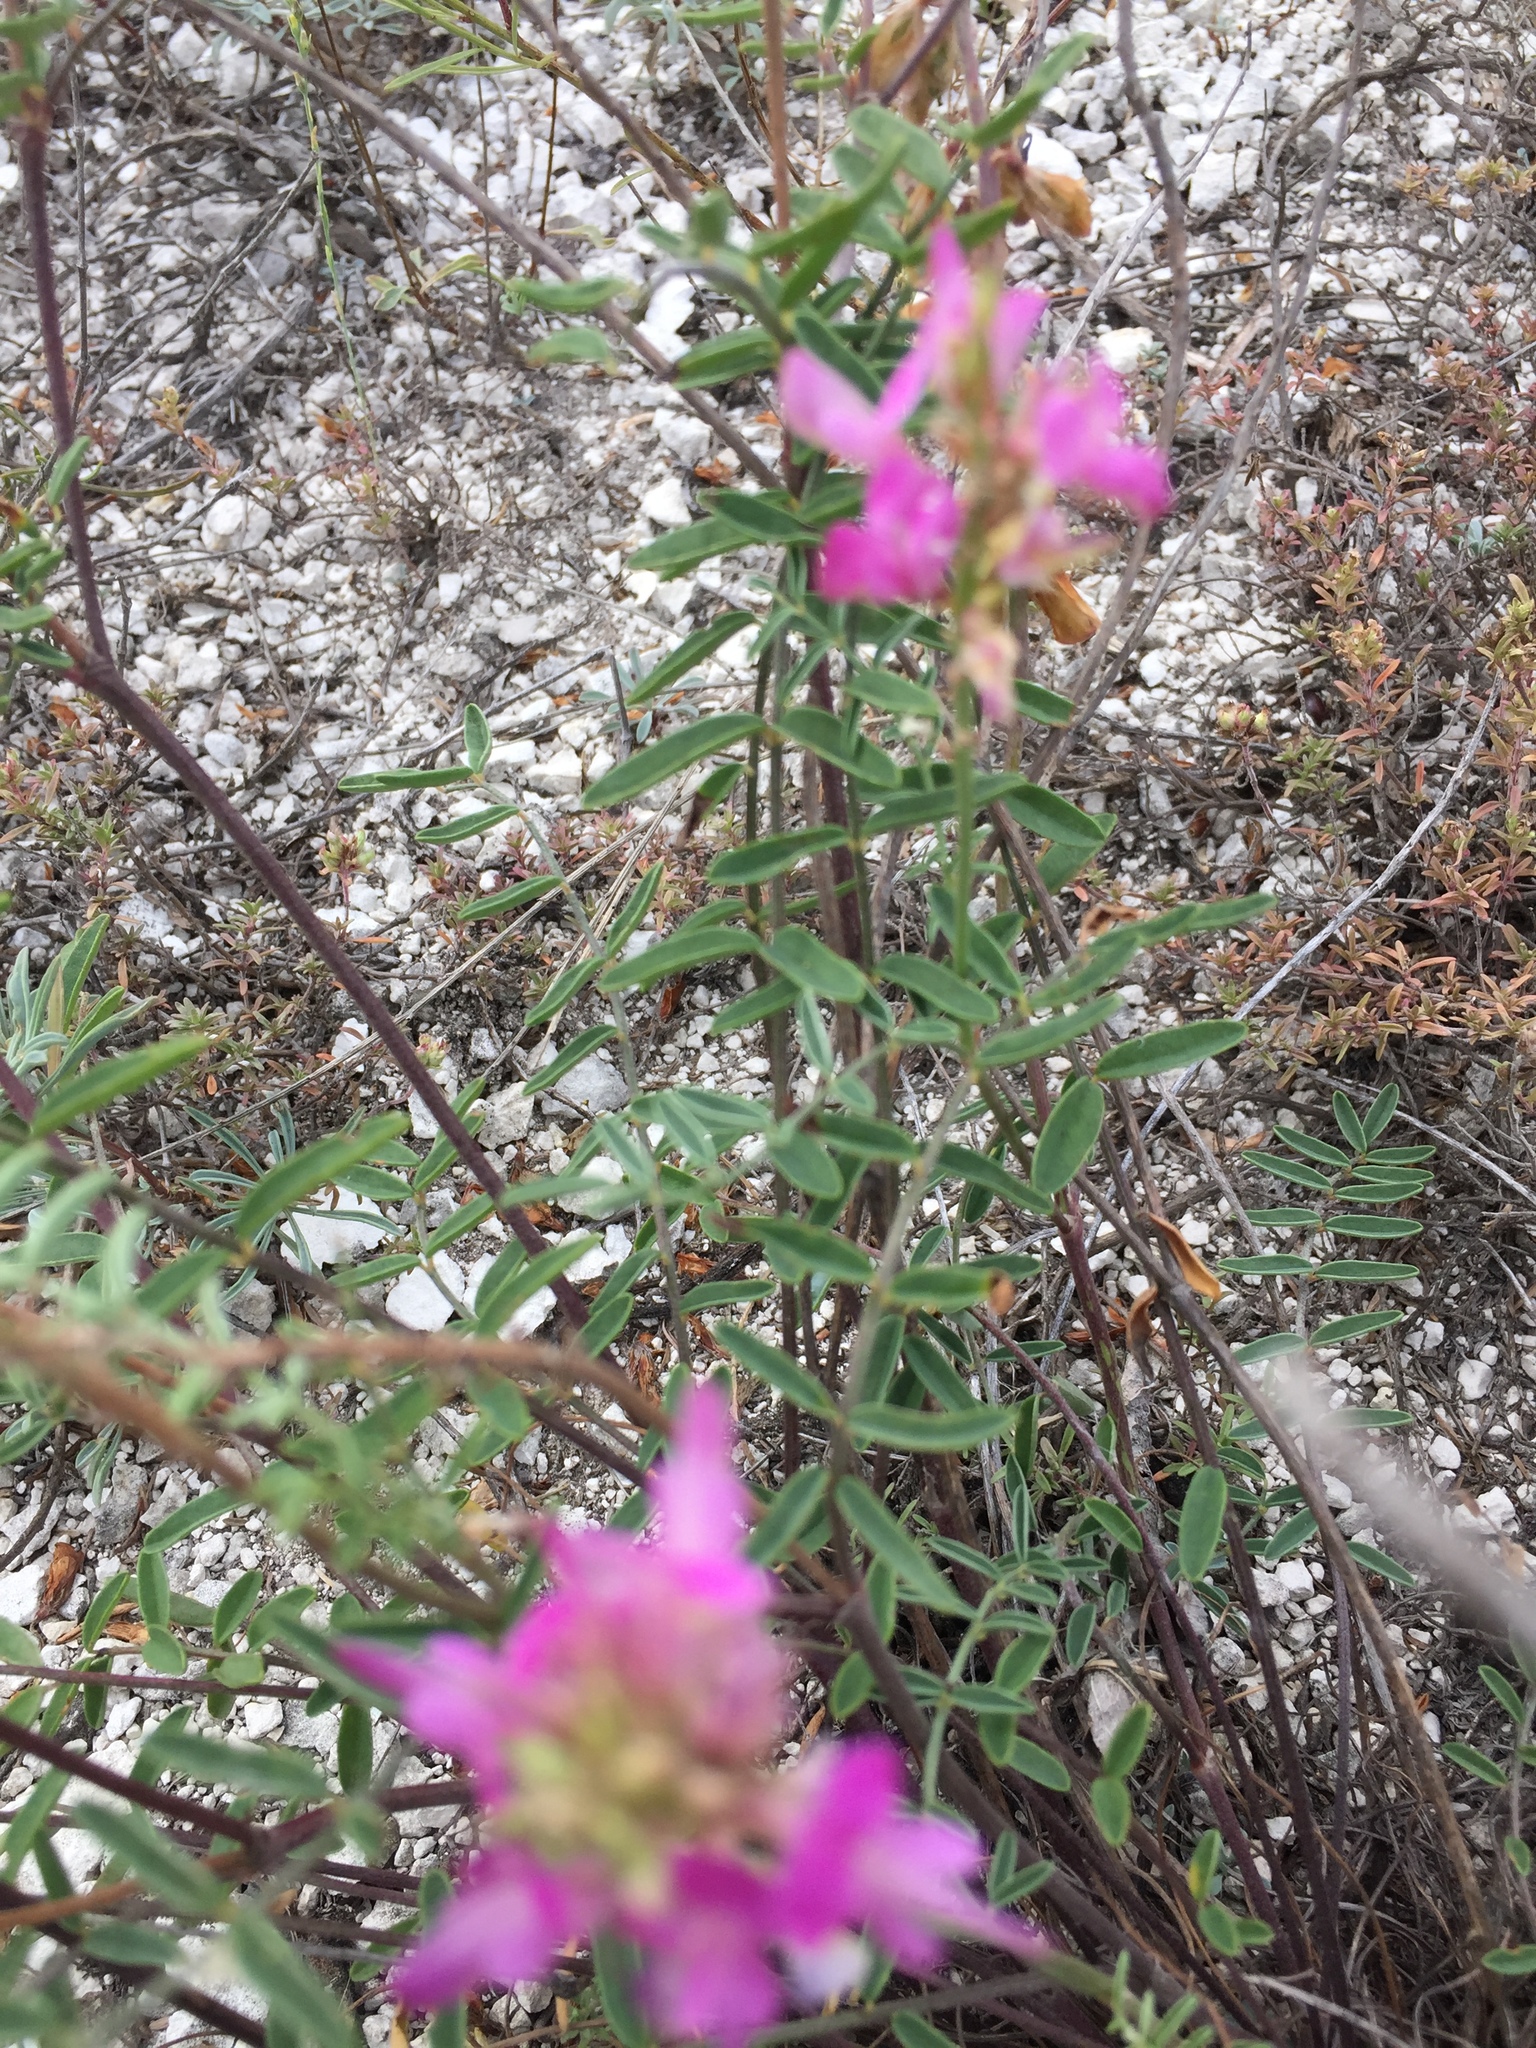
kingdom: Plantae
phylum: Tracheophyta
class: Magnoliopsida
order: Fabales
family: Fabaceae
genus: Hedysarum
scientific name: Hedysarum ucrainicum
